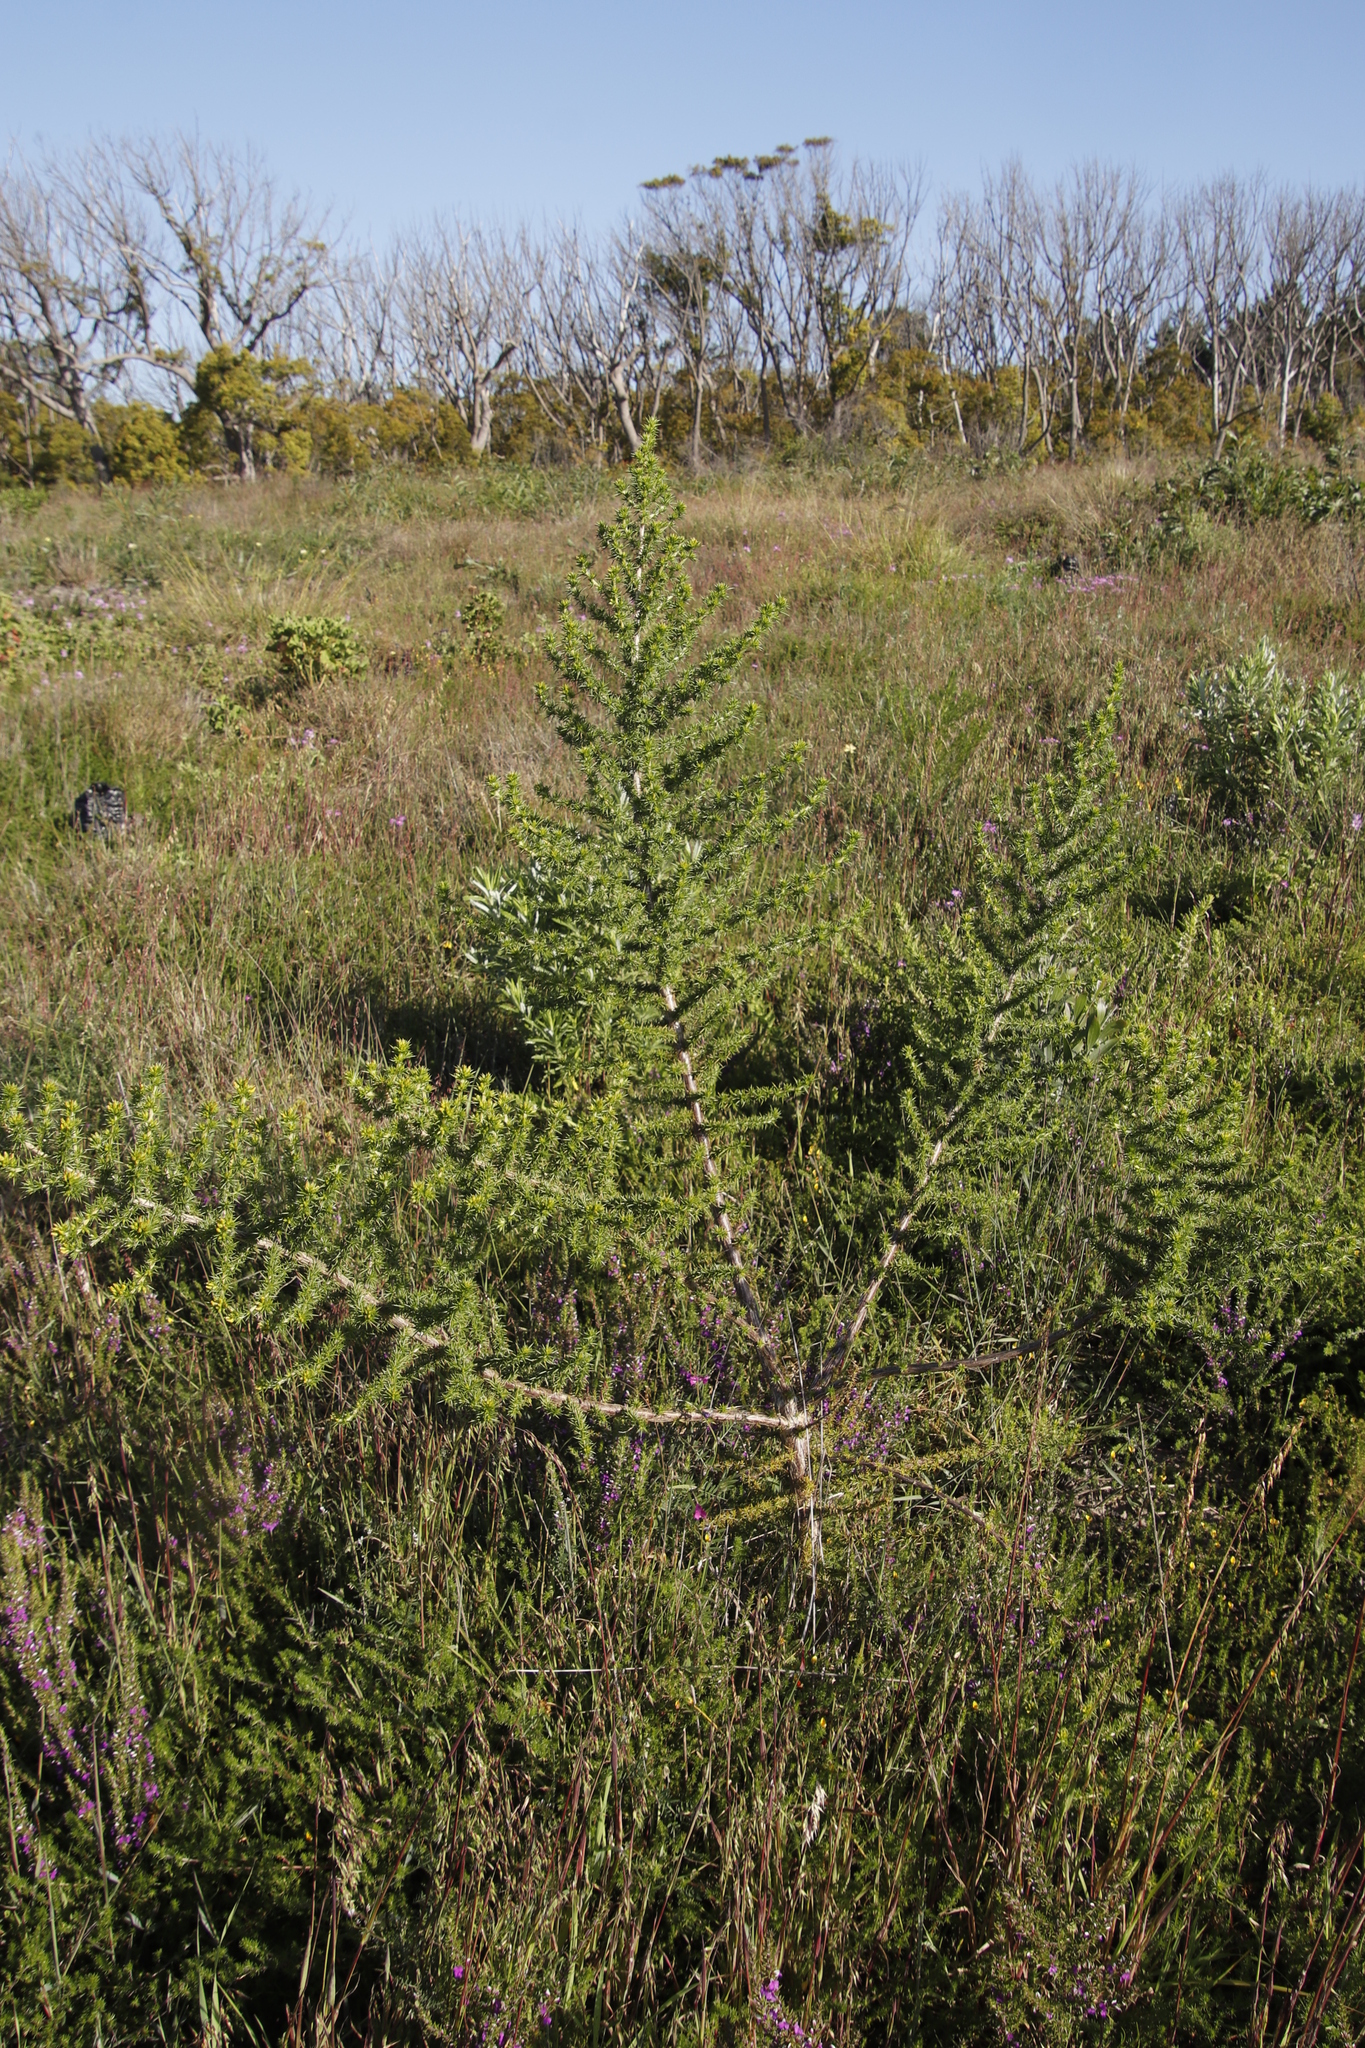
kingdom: Plantae
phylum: Tracheophyta
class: Magnoliopsida
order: Fabales
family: Fabaceae
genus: Aspalathus
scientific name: Aspalathus astroites
